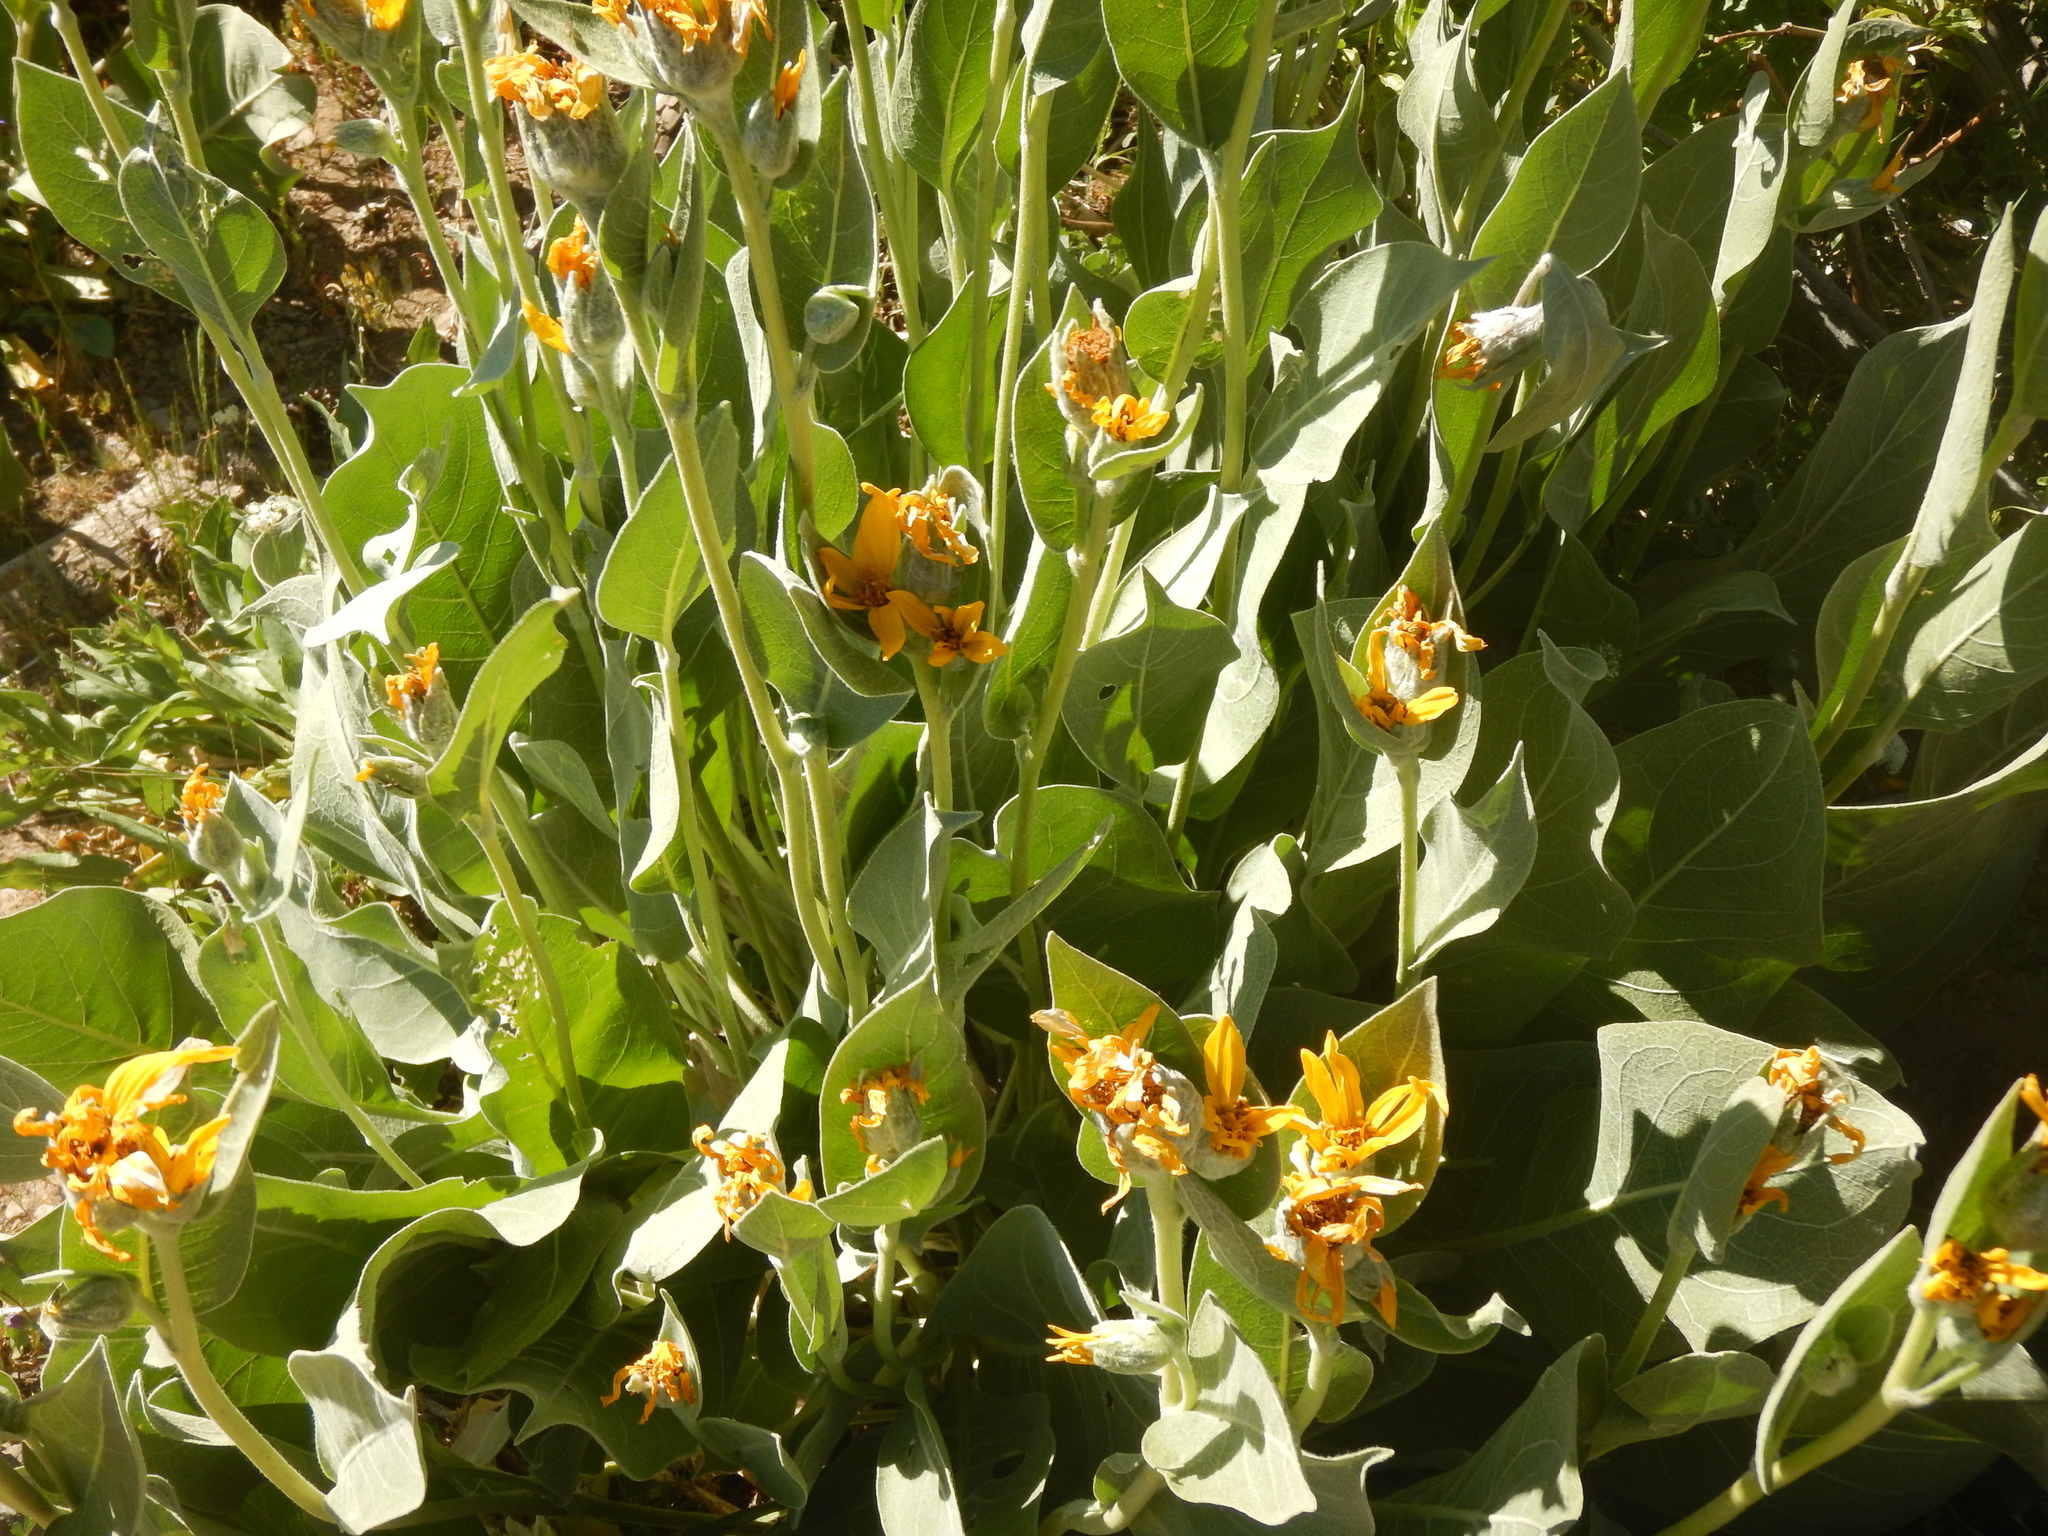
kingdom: Plantae
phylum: Tracheophyta
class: Magnoliopsida
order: Asterales
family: Asteraceae
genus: Wyethia
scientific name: Wyethia mollis
